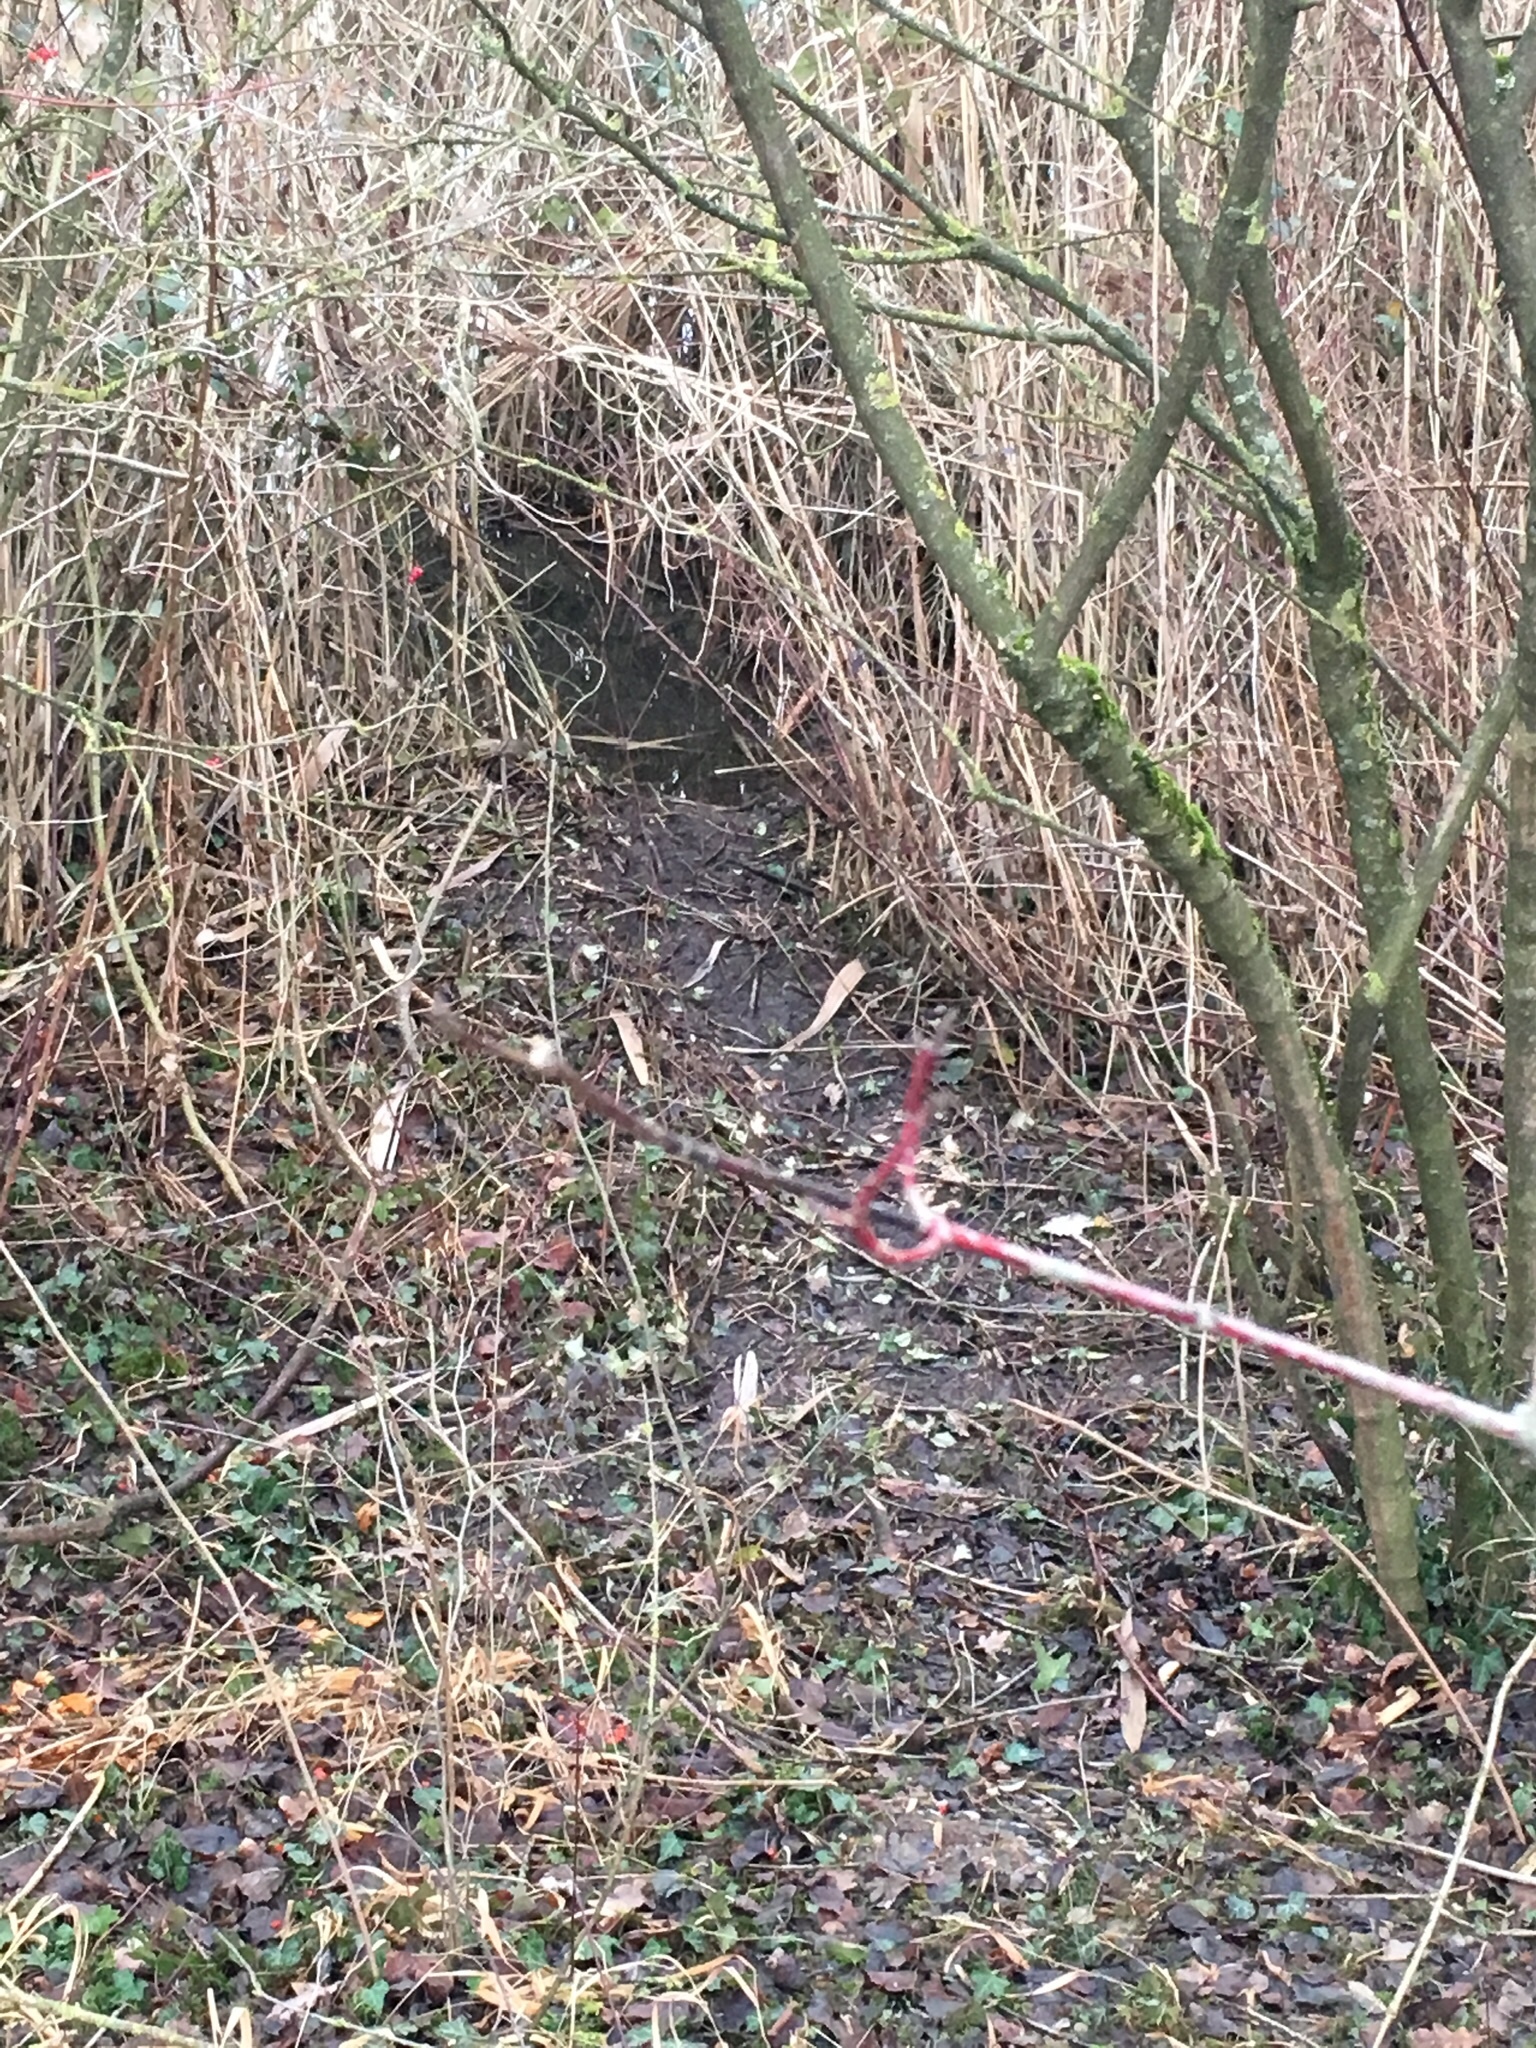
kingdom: Animalia
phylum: Chordata
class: Mammalia
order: Rodentia
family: Castoridae
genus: Castor
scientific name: Castor fiber
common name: Eurasian beaver
